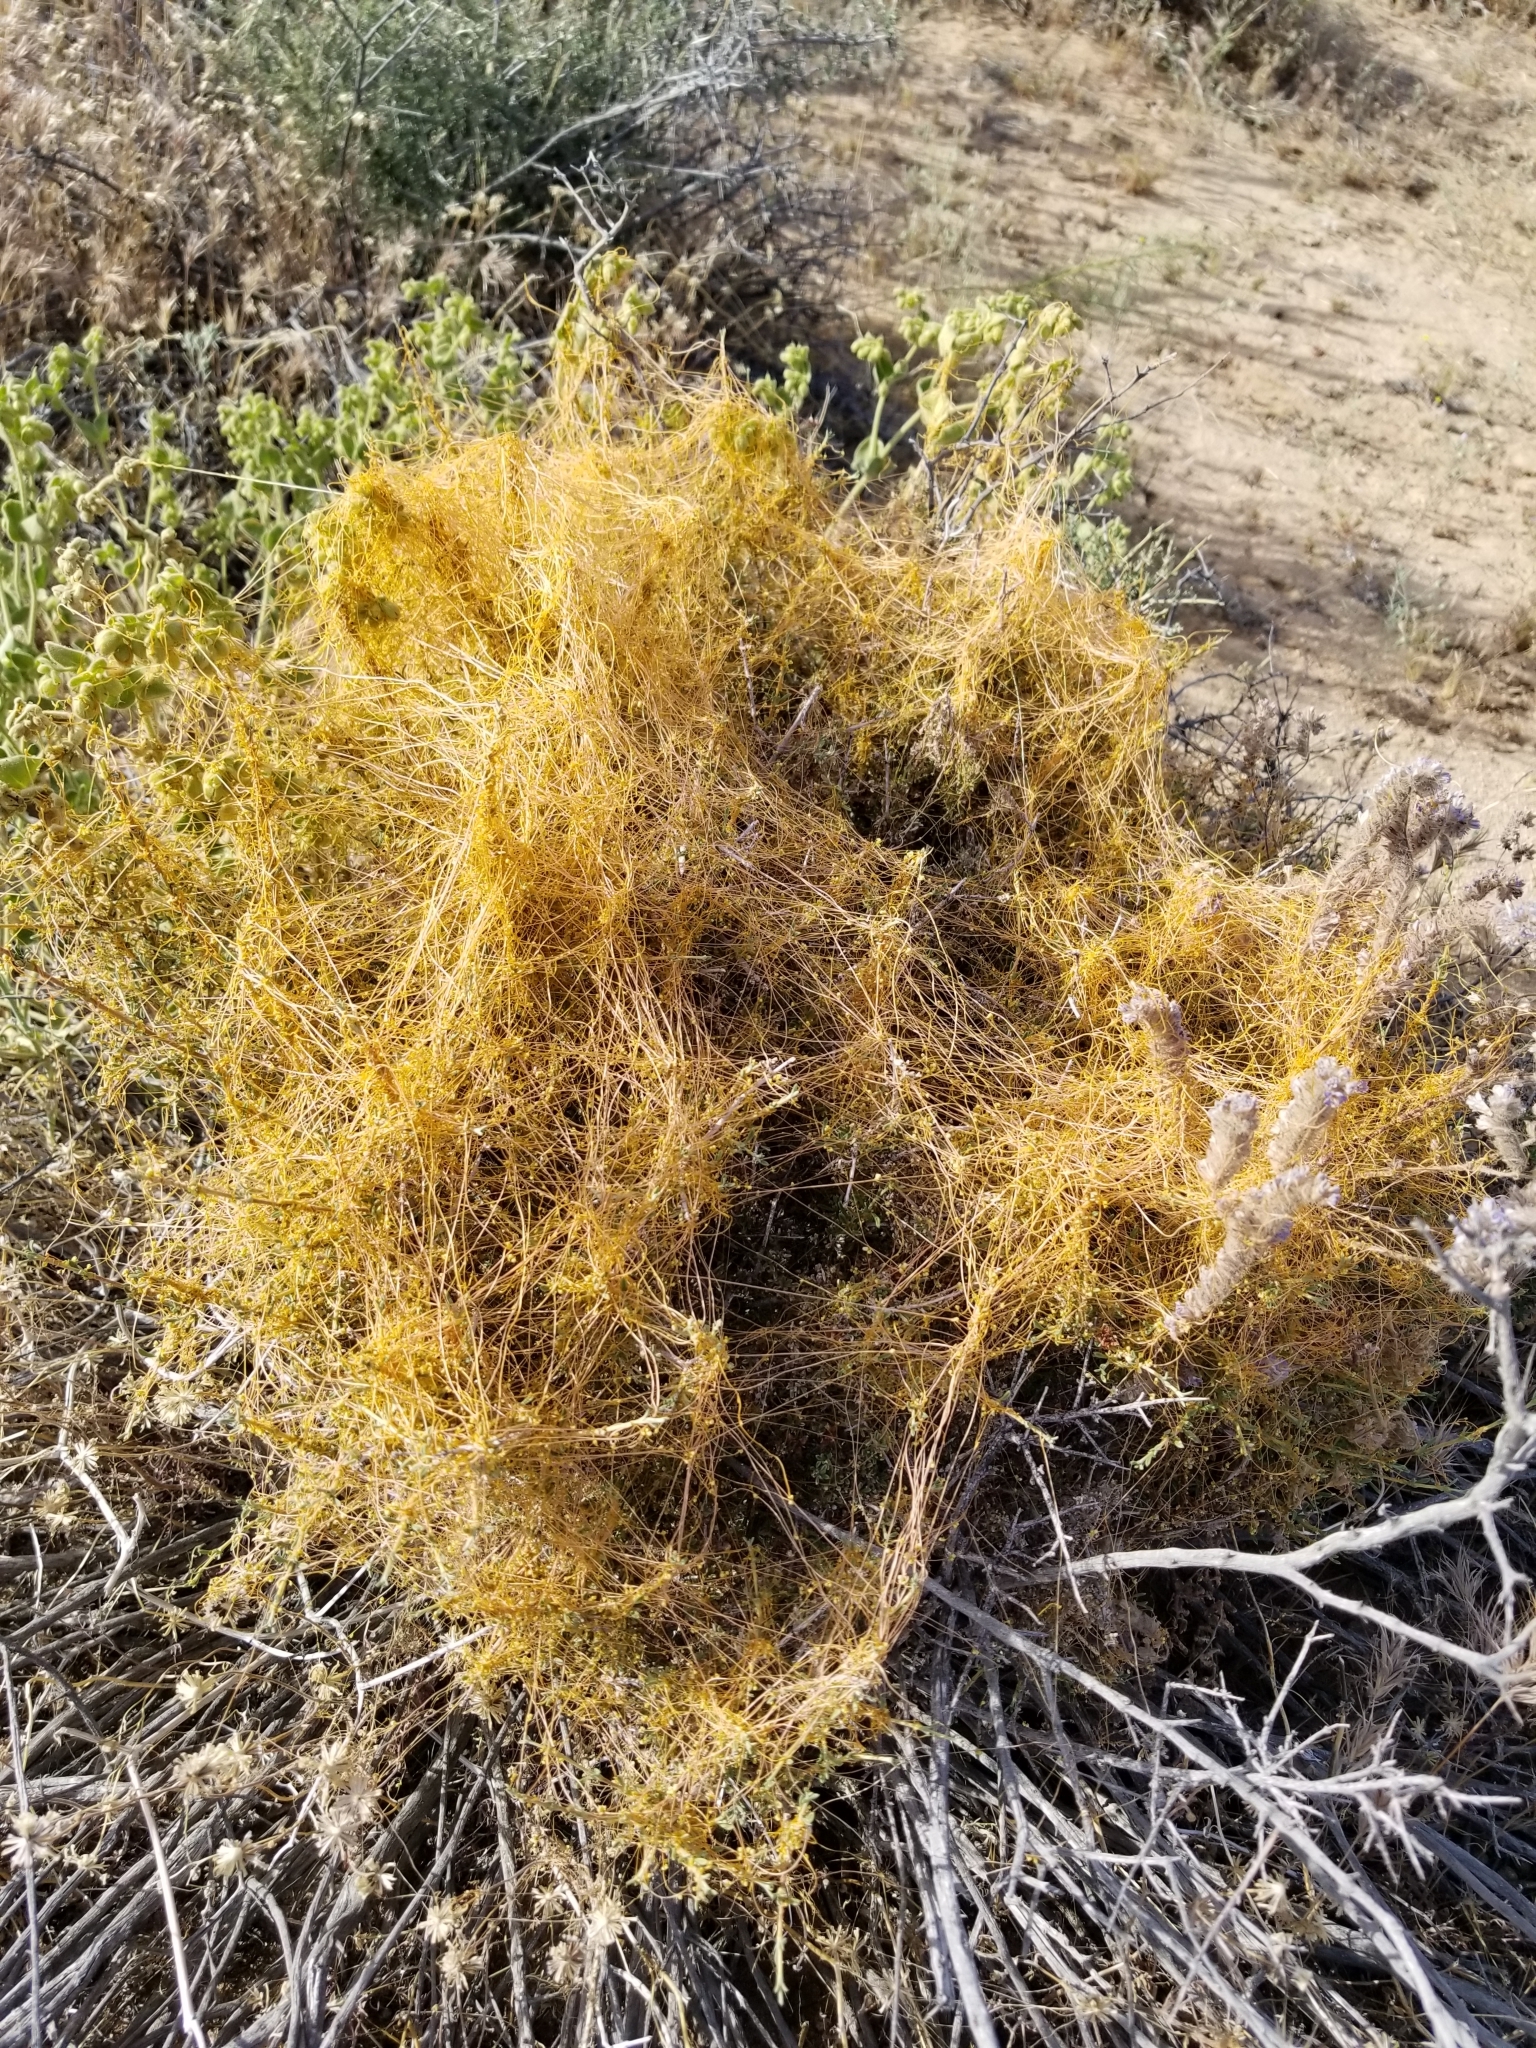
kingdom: Plantae
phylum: Tracheophyta
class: Magnoliopsida
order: Solanales
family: Convolvulaceae
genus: Cuscuta
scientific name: Cuscuta californica
